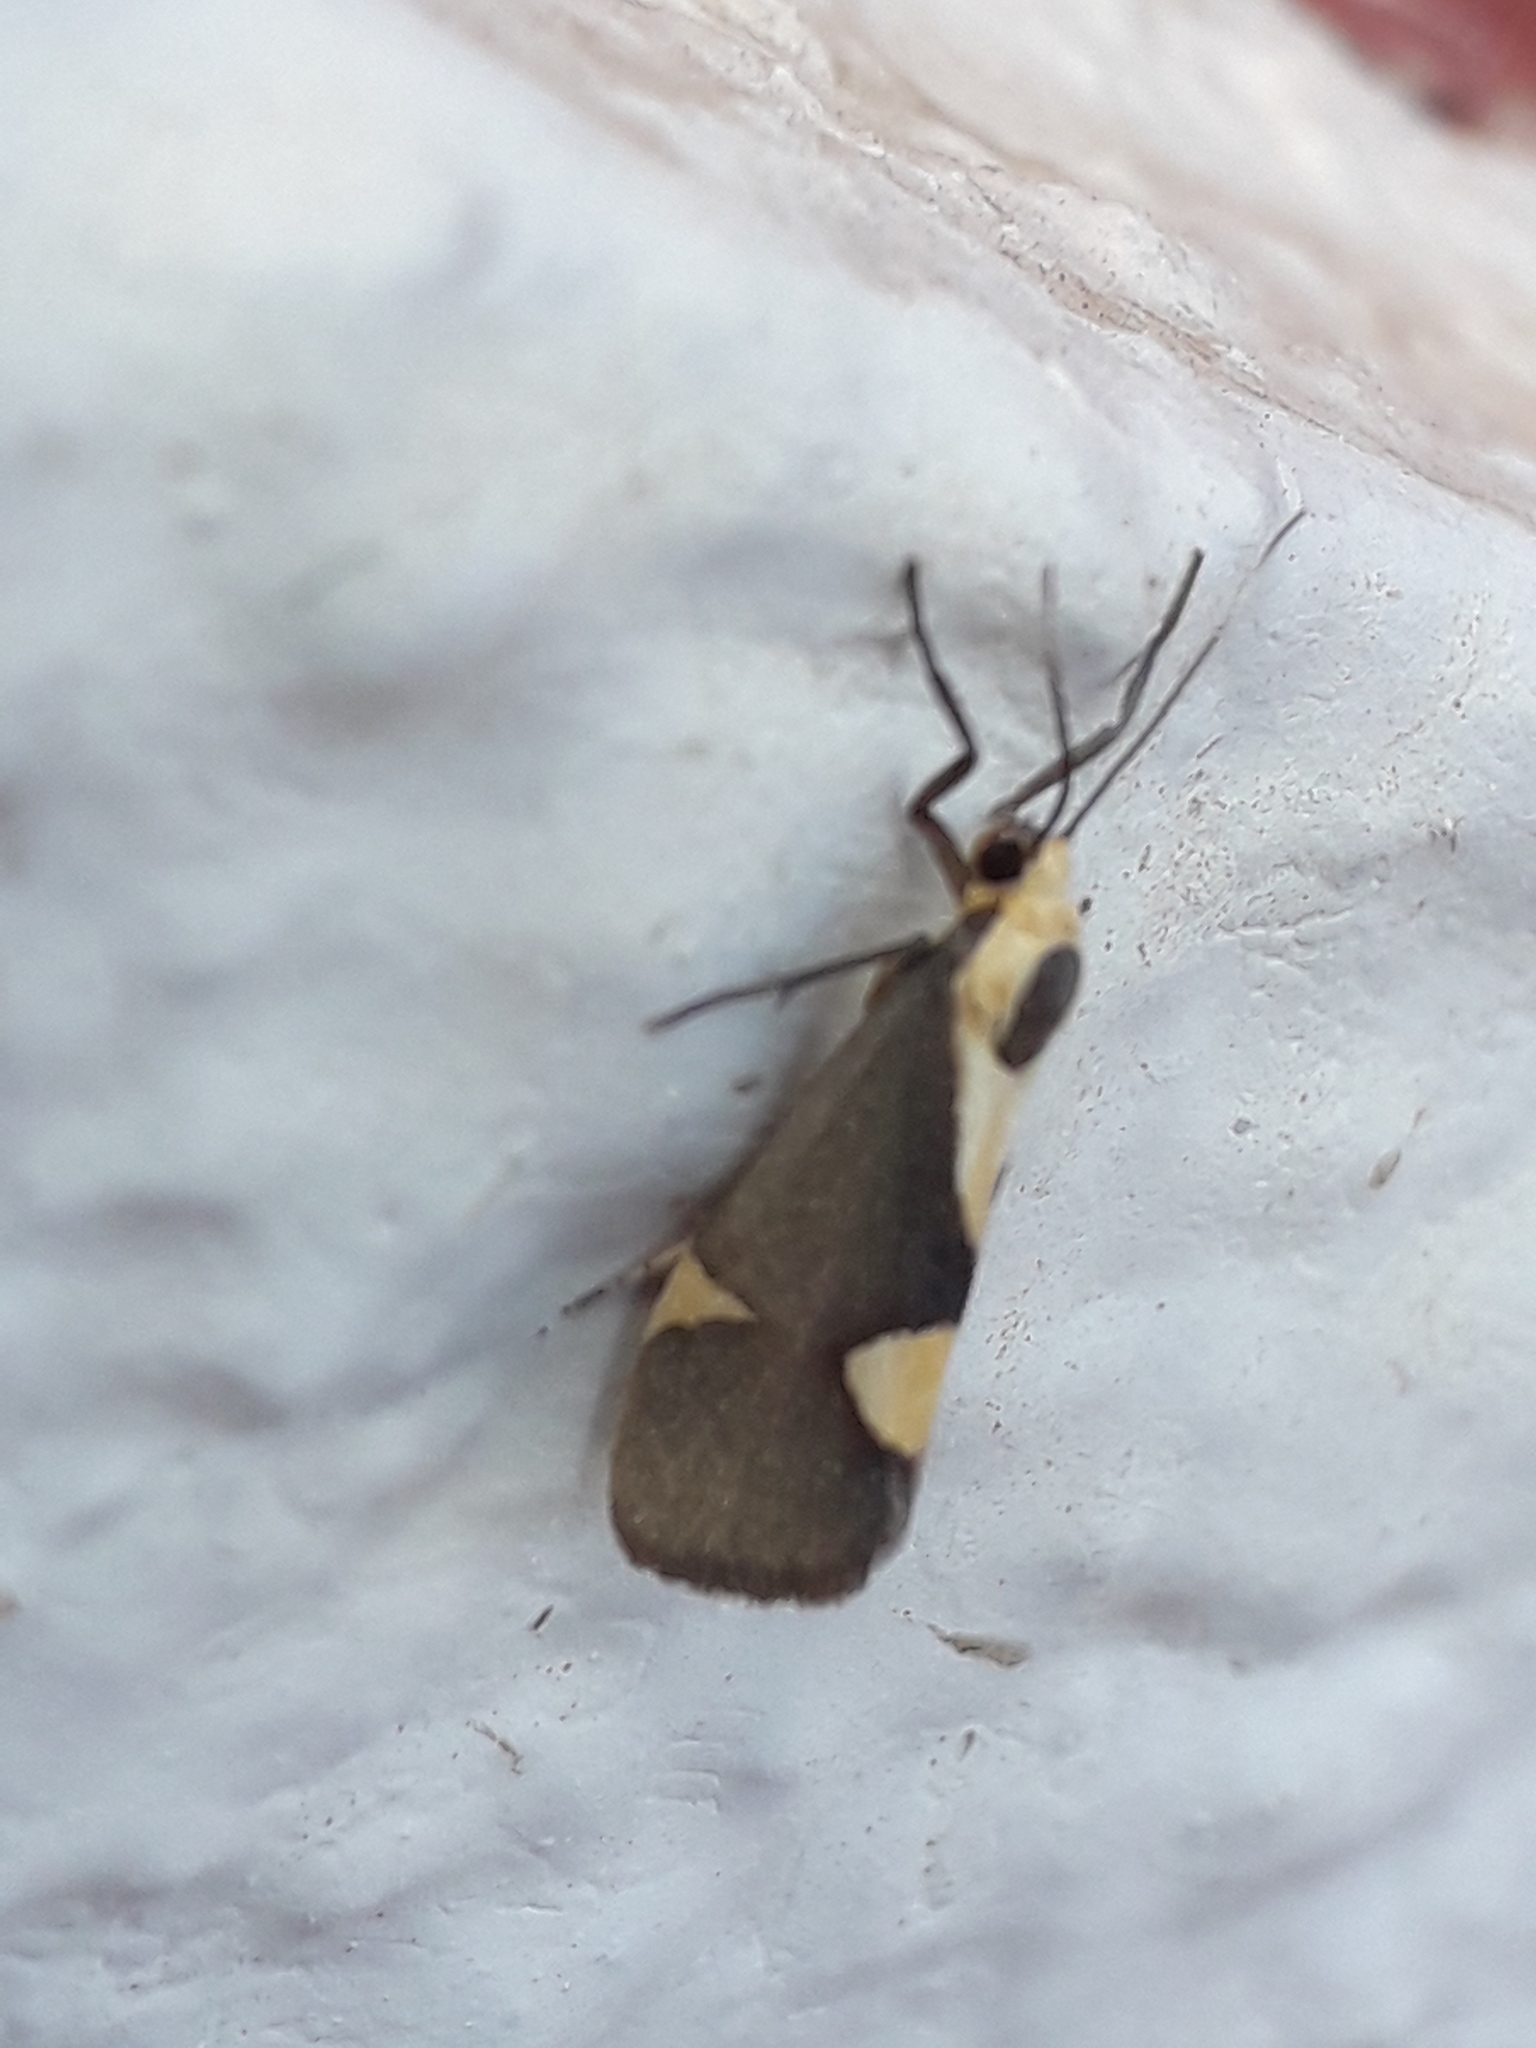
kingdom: Animalia
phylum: Arthropoda
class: Insecta
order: Lepidoptera
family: Erebidae
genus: Cisthene
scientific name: Cisthene subrufa
